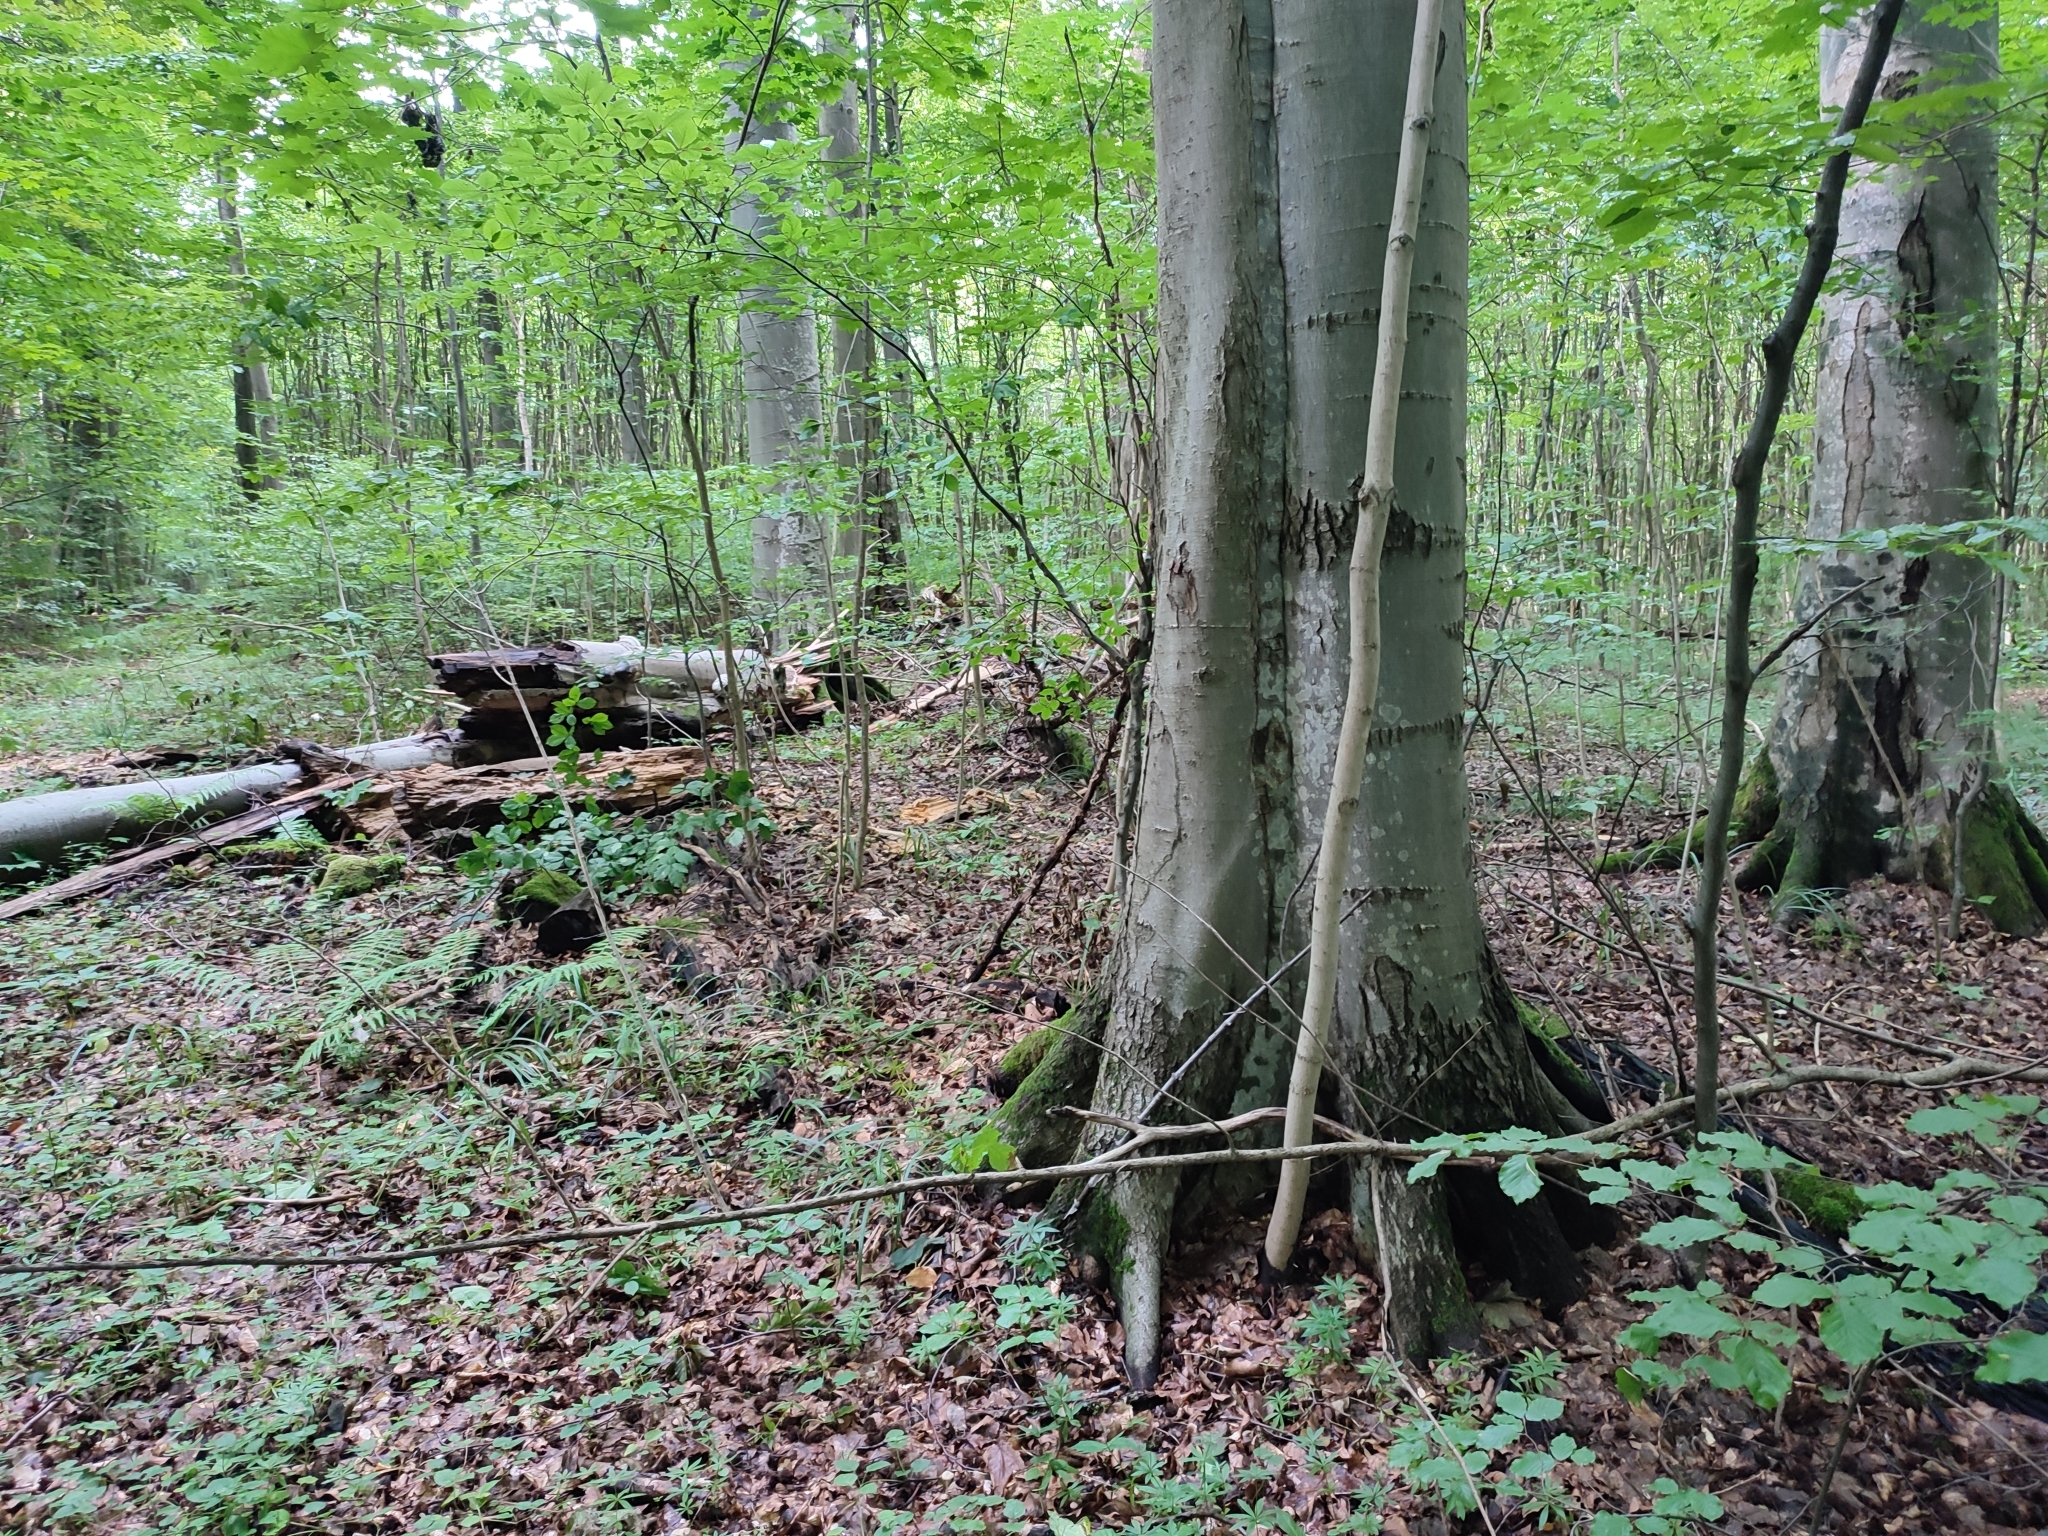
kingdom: Plantae
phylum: Tracheophyta
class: Magnoliopsida
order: Fagales
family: Fagaceae
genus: Fagus
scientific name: Fagus sylvatica
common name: Beech
